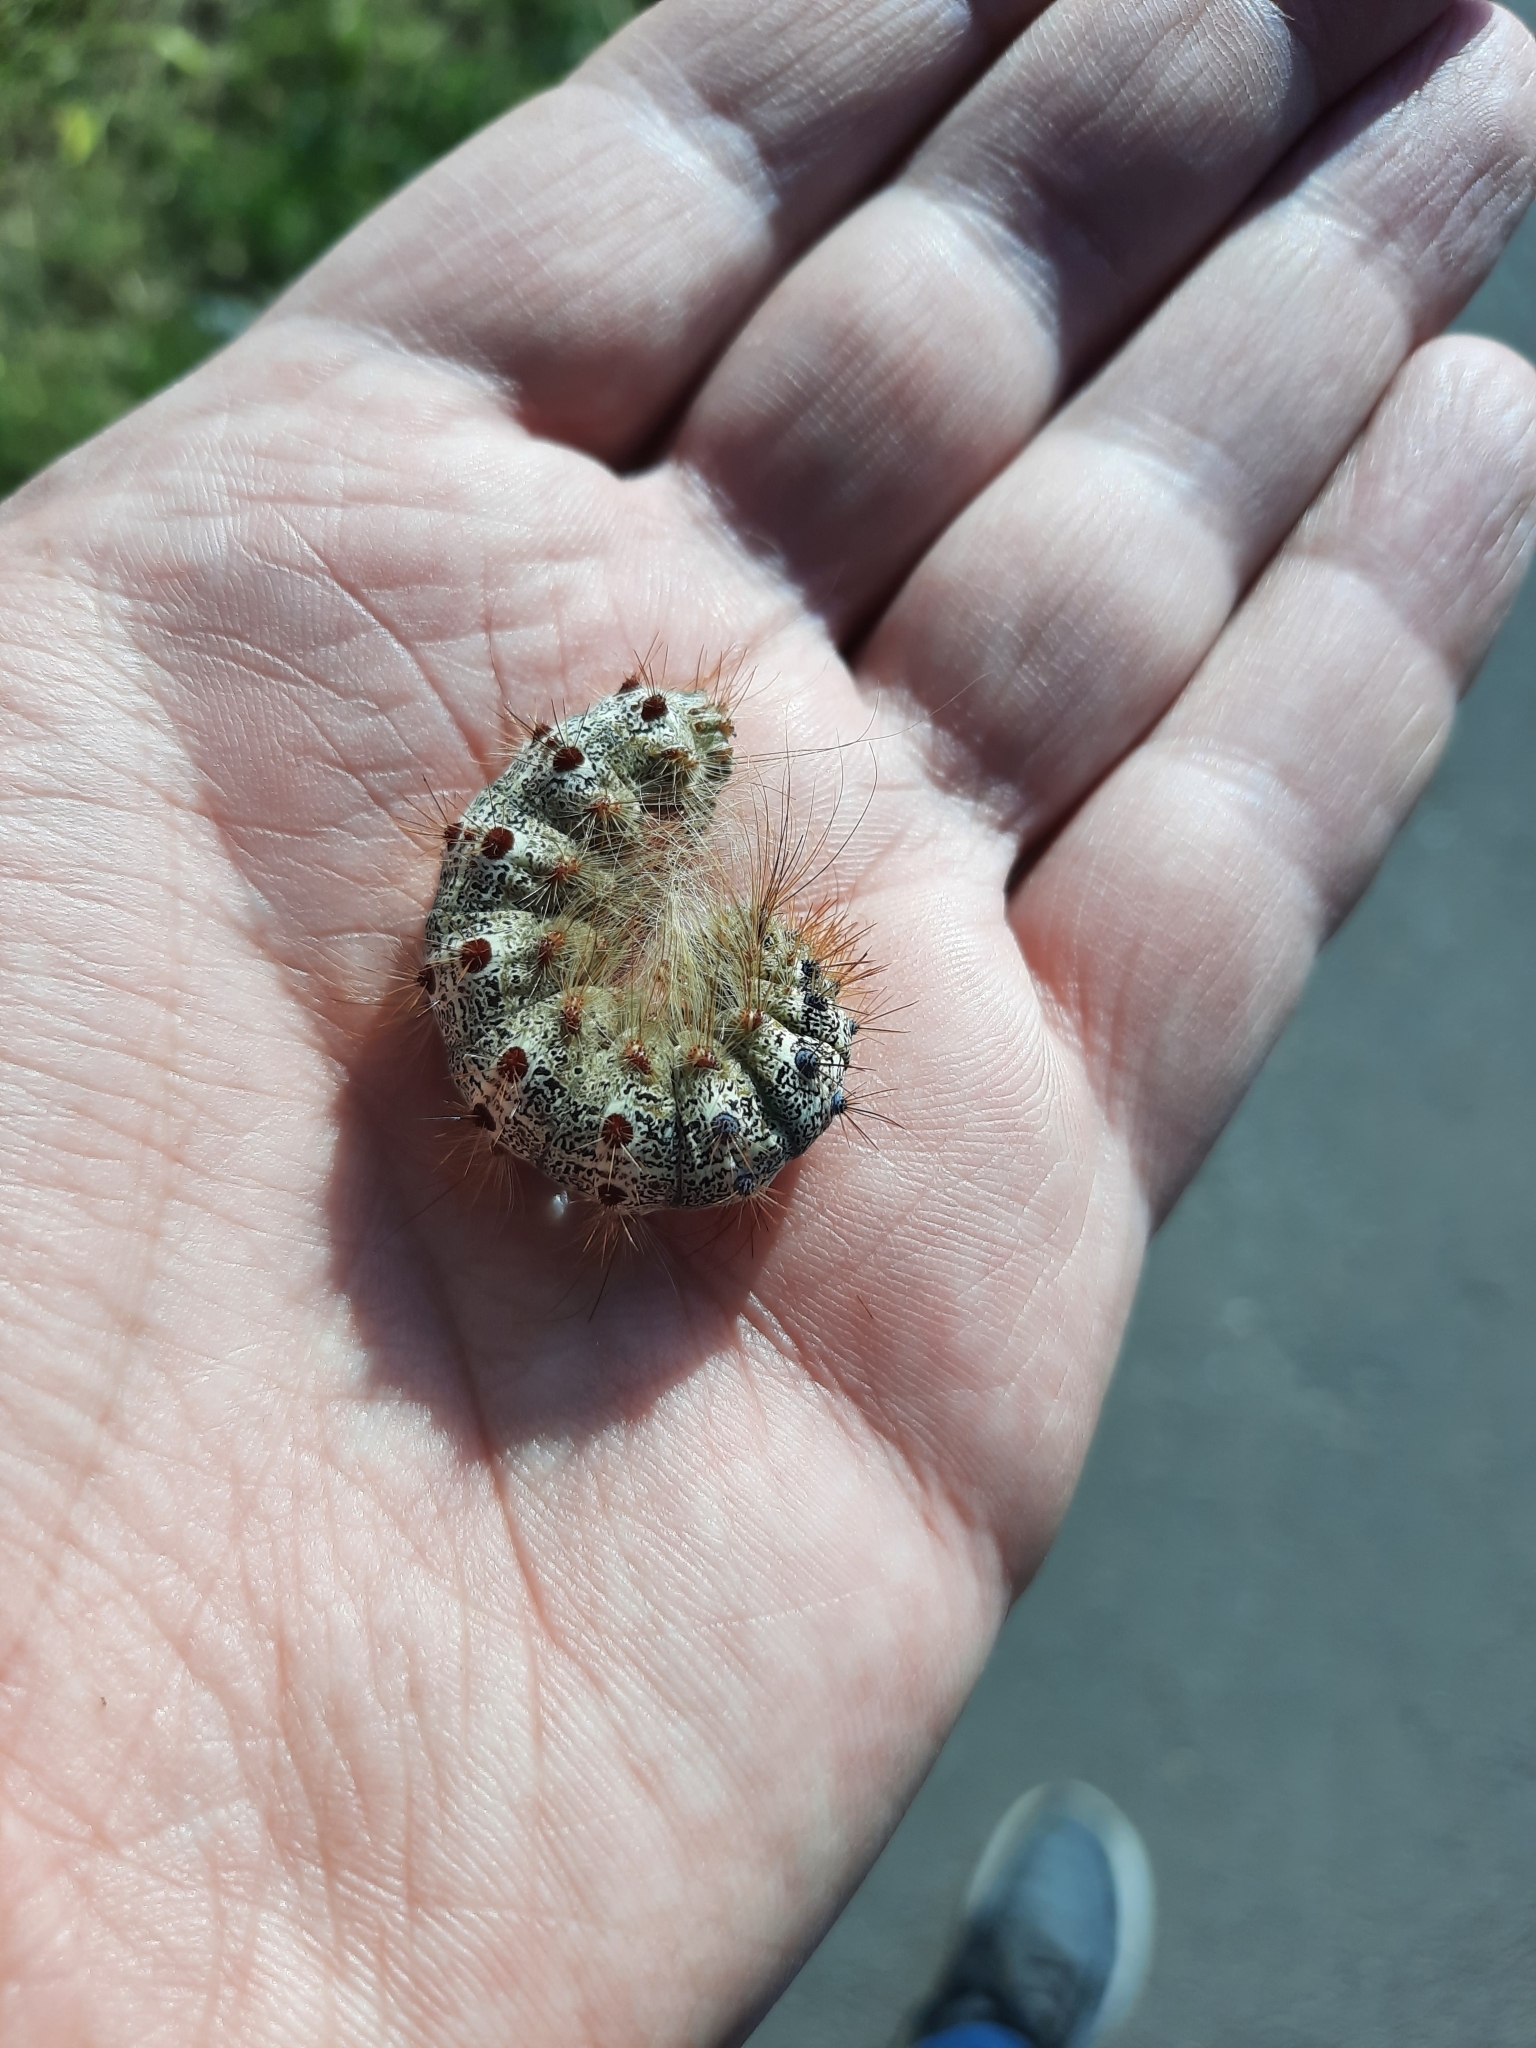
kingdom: Animalia
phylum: Arthropoda
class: Insecta
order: Lepidoptera
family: Erebidae
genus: Lymantria
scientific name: Lymantria dispar
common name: Gypsy moth
